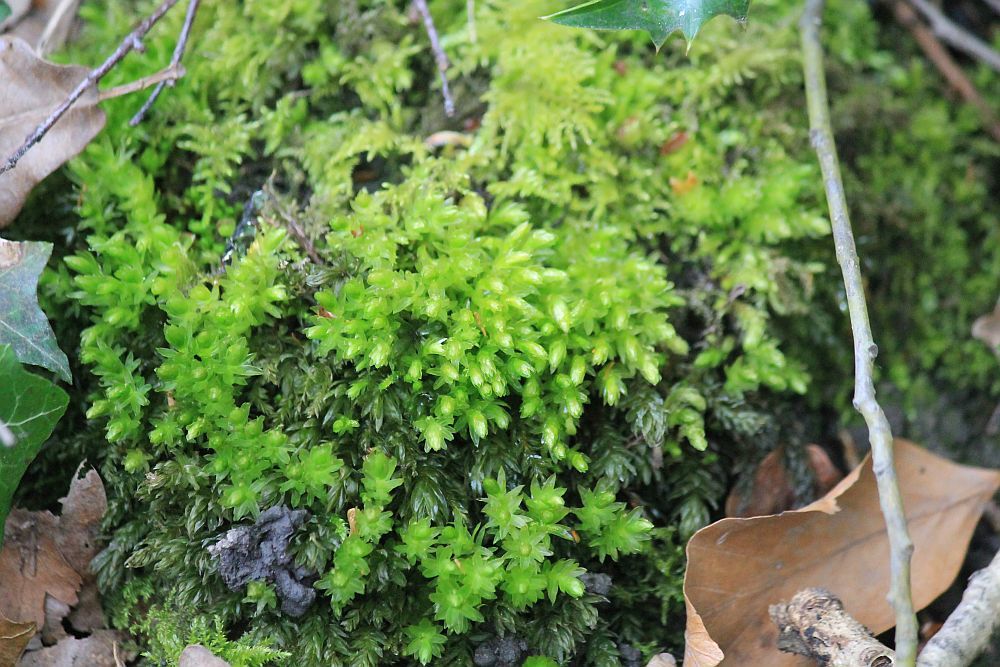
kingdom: Plantae
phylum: Bryophyta
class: Bryopsida
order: Bryales
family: Mniaceae
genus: Mnium
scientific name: Mnium hornum
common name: Swan's-neck leafy moss
